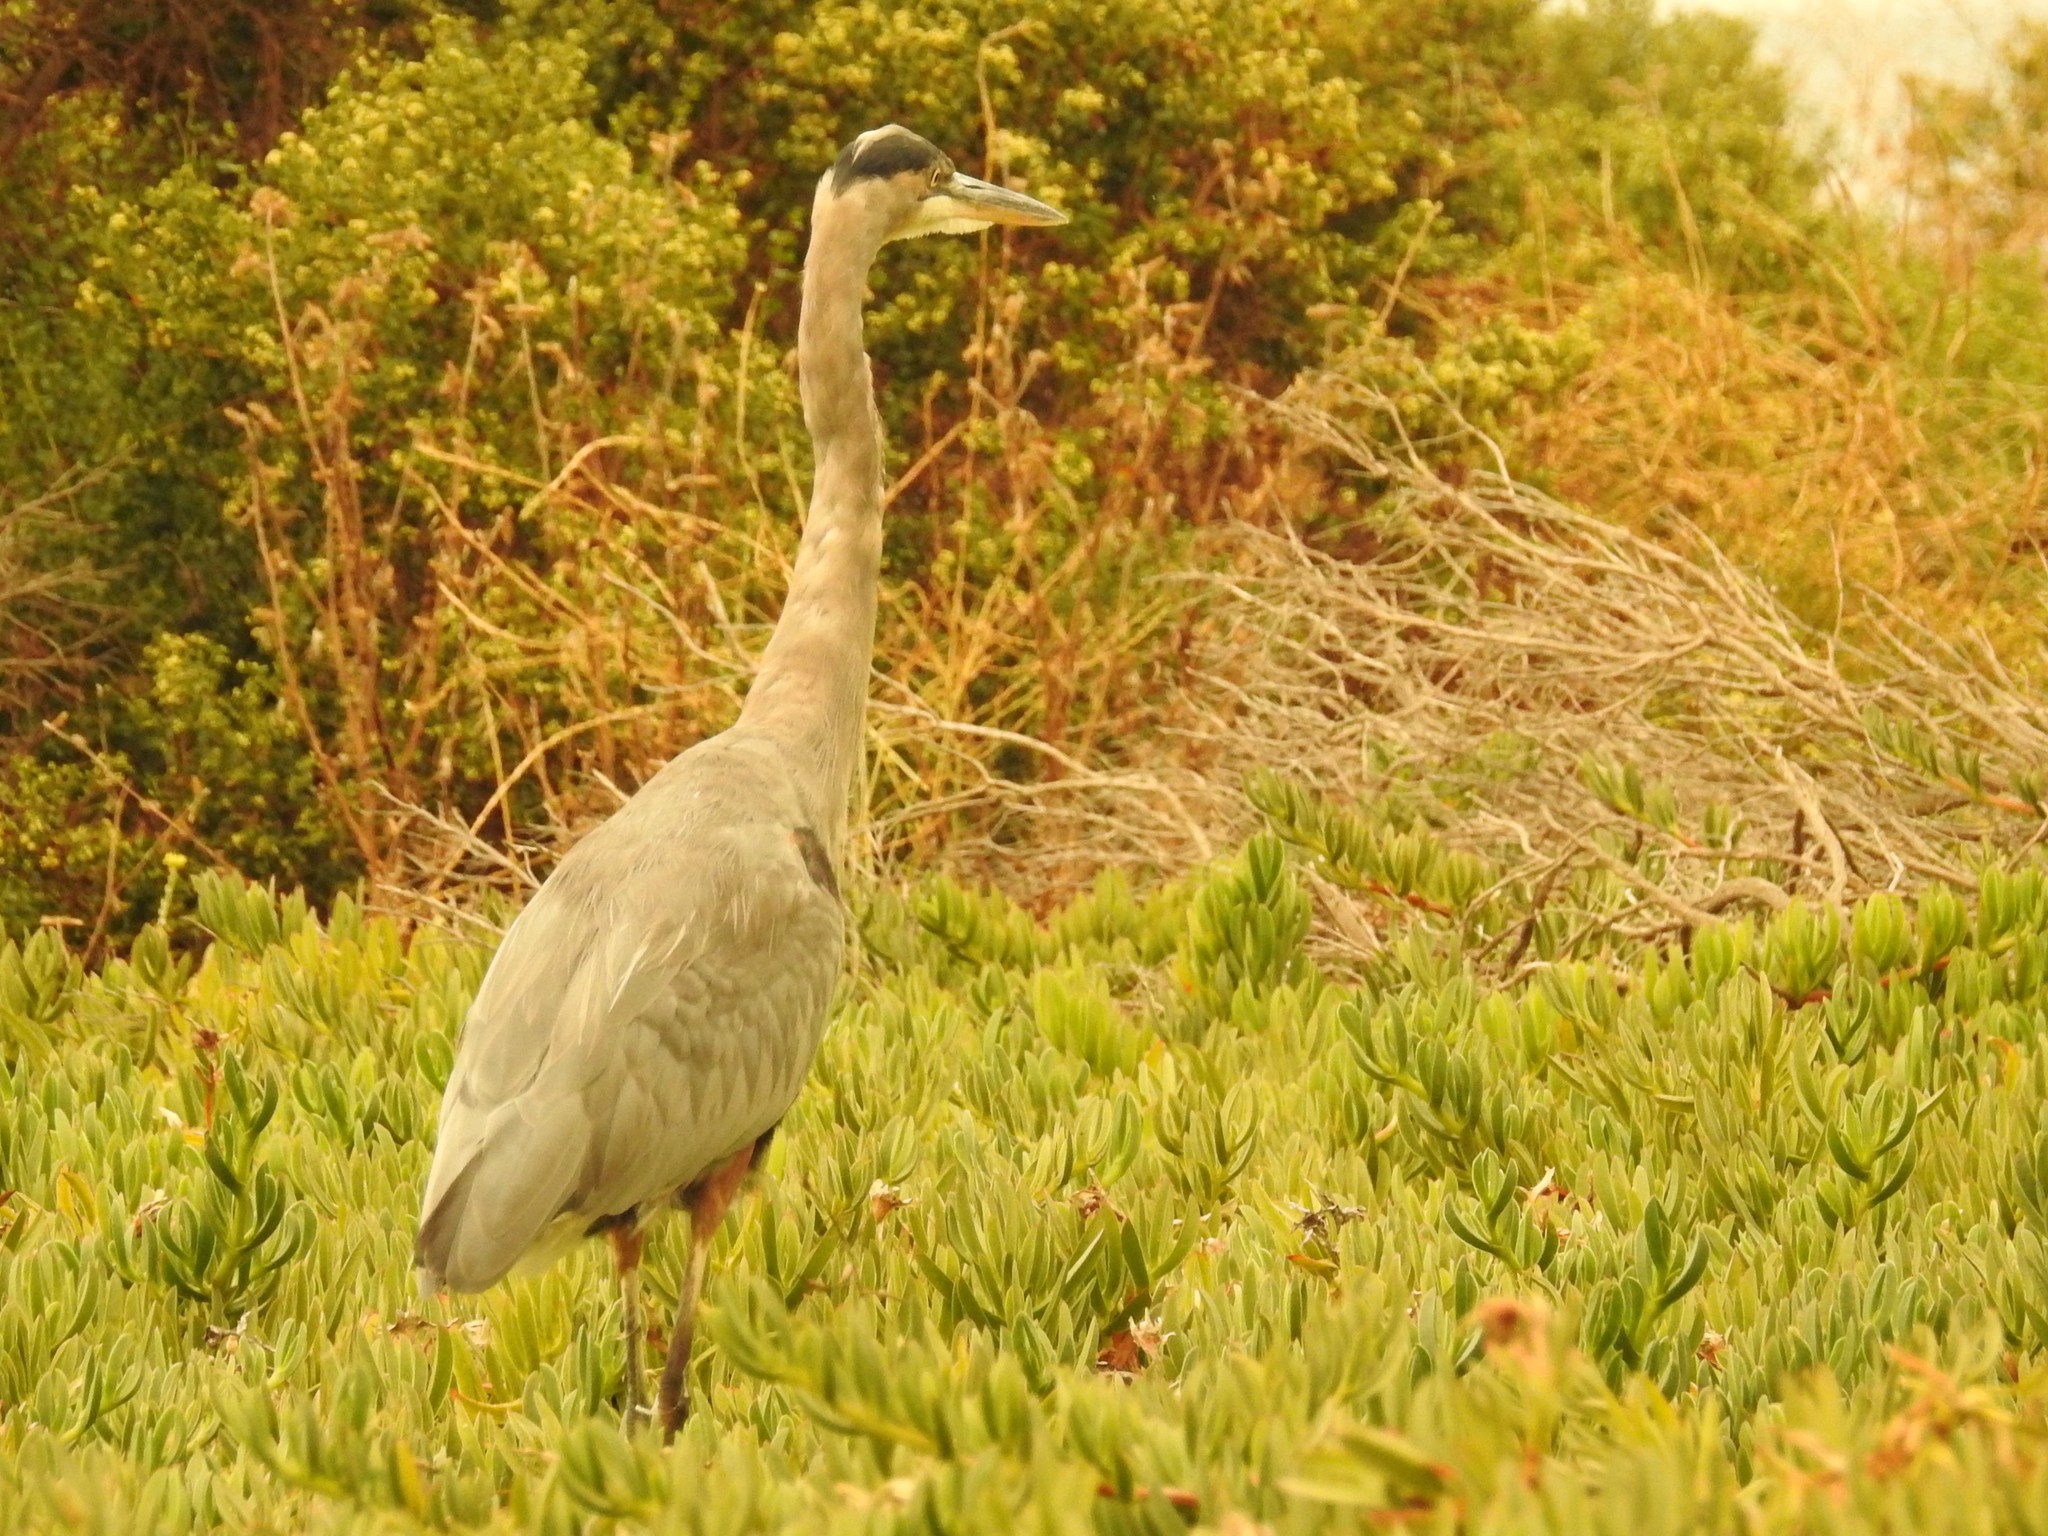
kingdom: Animalia
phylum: Chordata
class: Aves
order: Pelecaniformes
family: Ardeidae
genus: Ardea
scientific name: Ardea herodias
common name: Great blue heron
